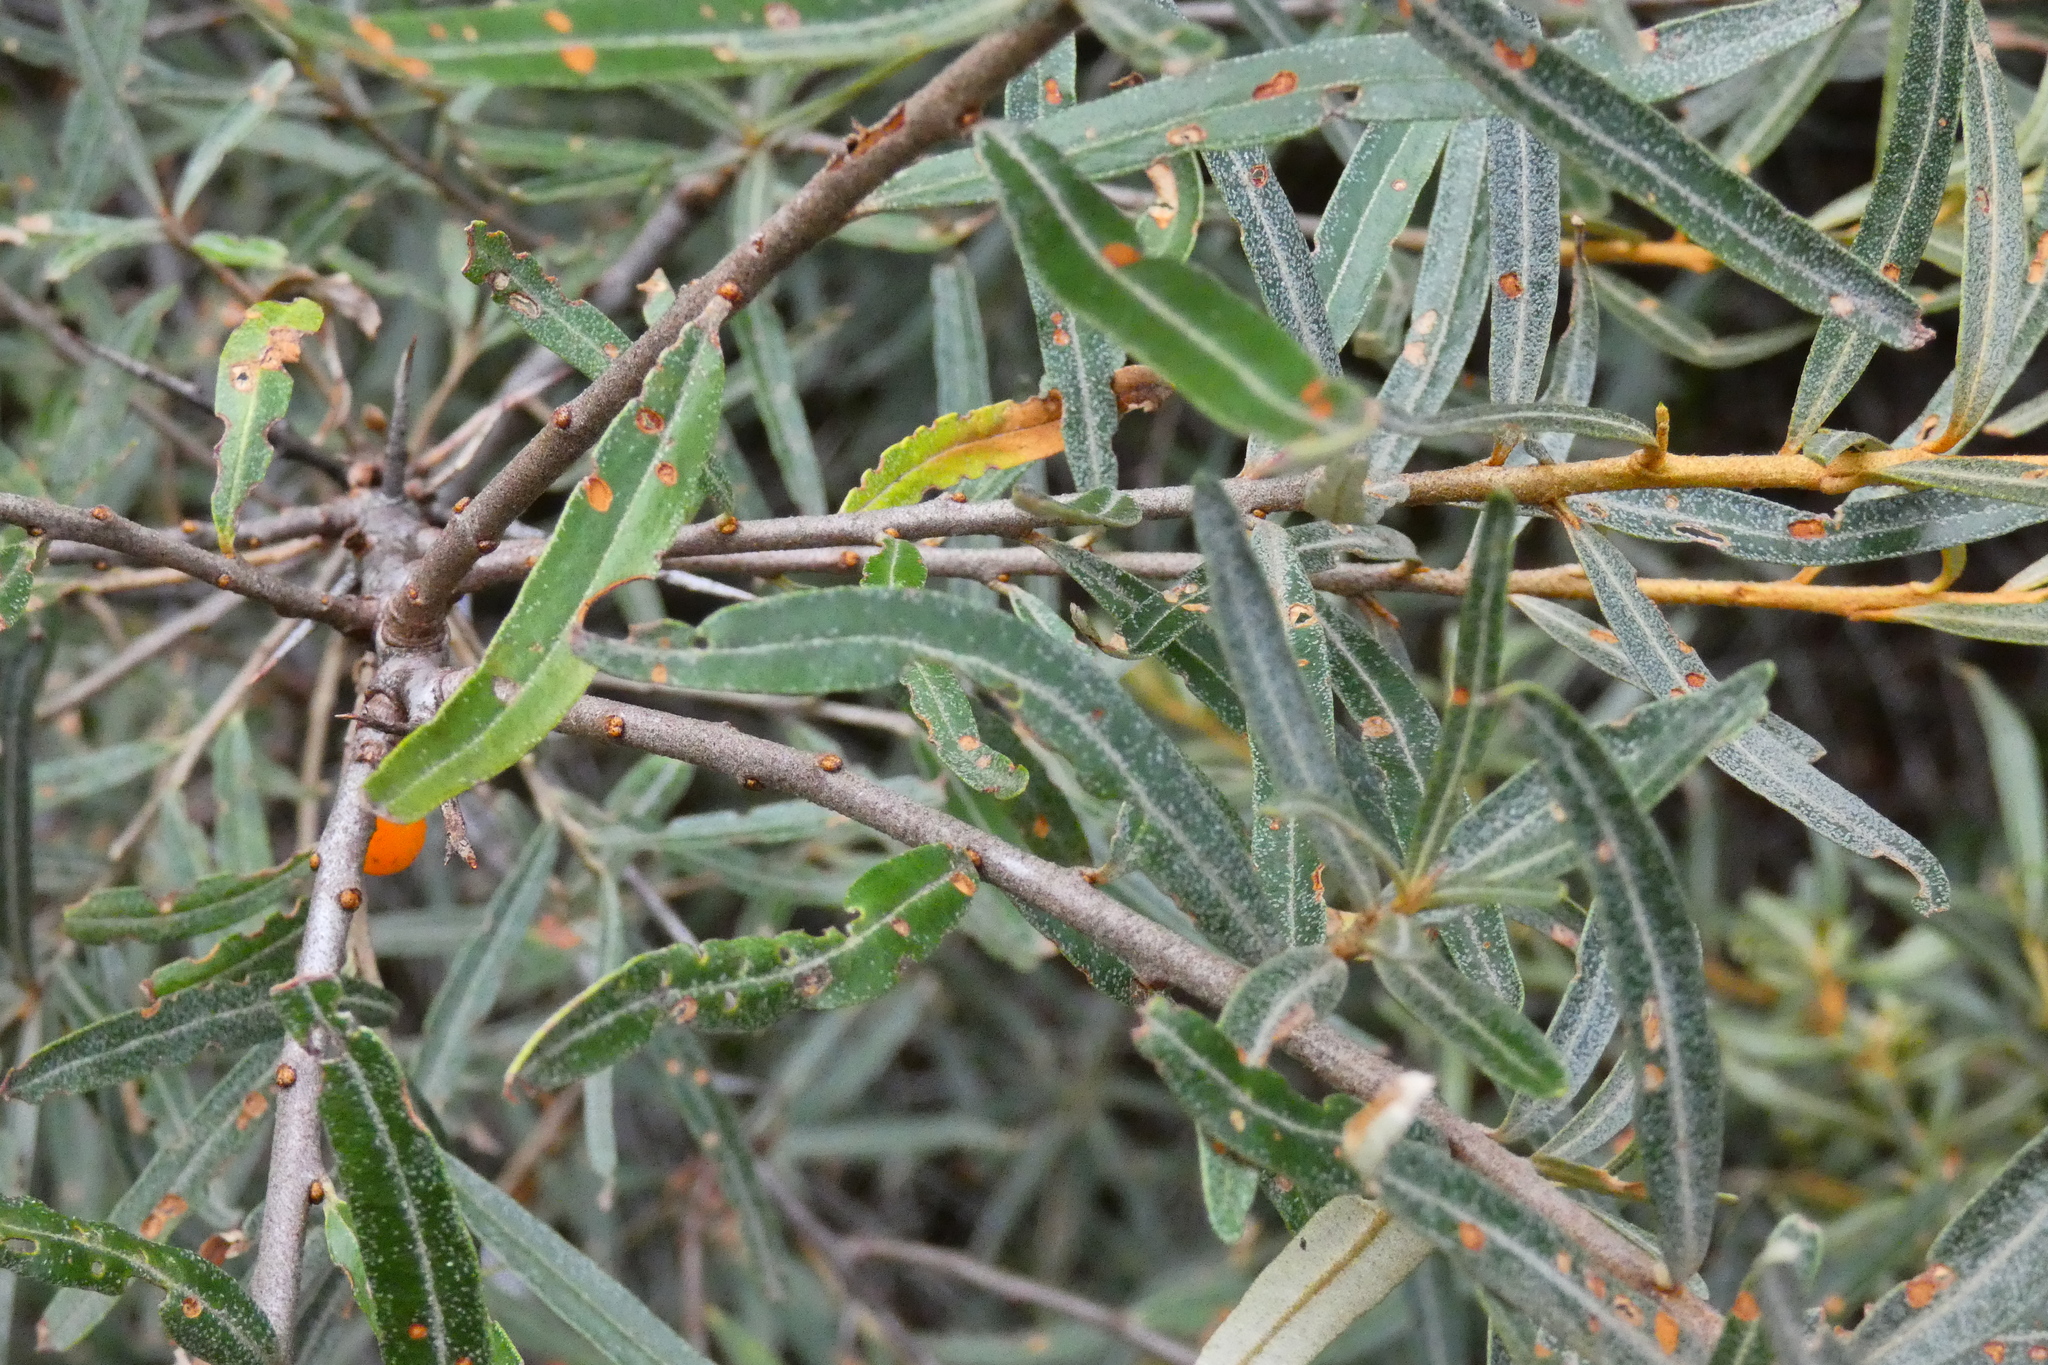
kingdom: Plantae
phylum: Tracheophyta
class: Magnoliopsida
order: Rosales
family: Elaeagnaceae
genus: Hippophae
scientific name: Hippophae rhamnoides
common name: Sea-buckthorn
